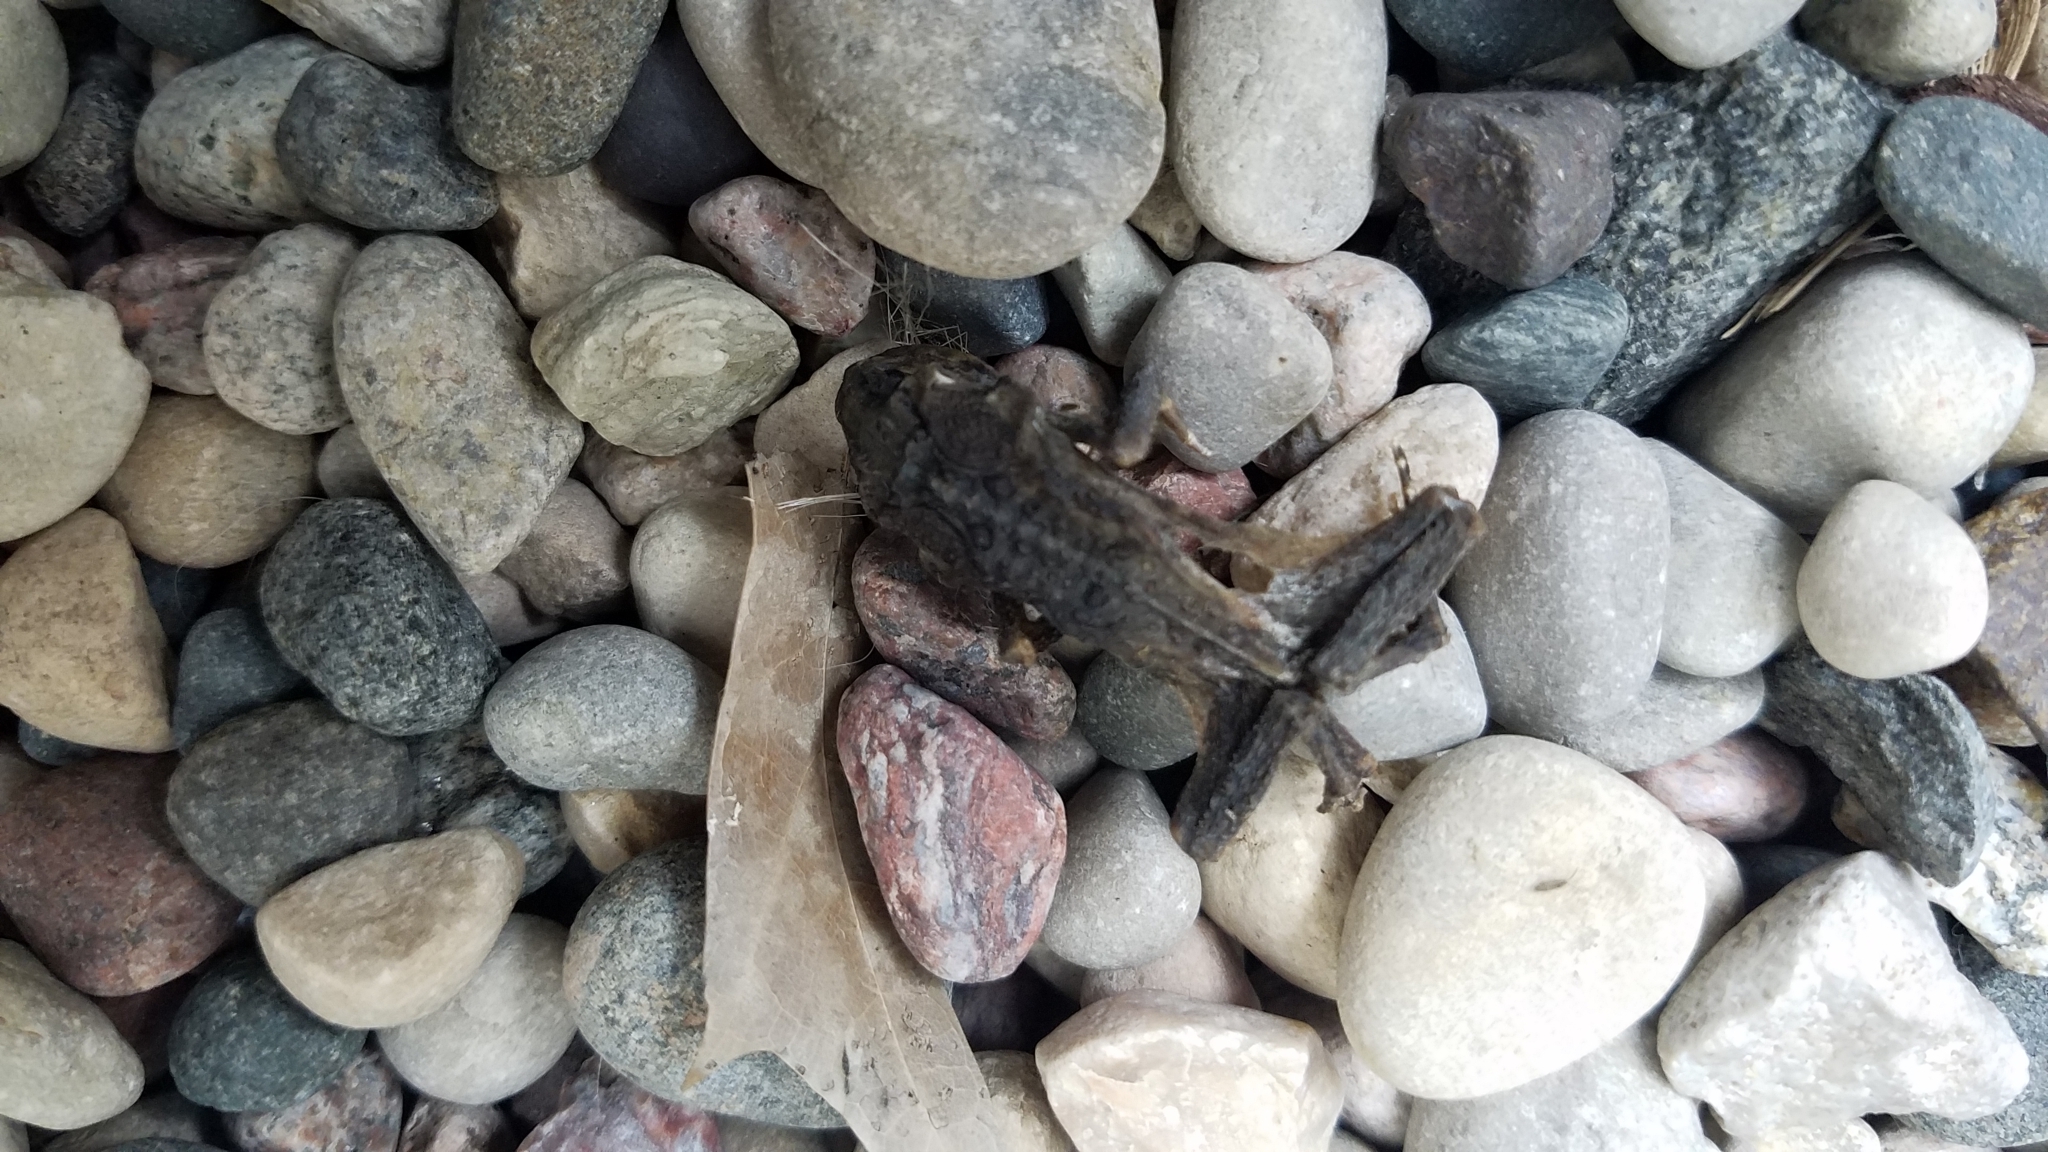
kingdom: Animalia
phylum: Chordata
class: Amphibia
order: Anura
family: Bufonidae
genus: Anaxyrus
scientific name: Anaxyrus americanus
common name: American toad
